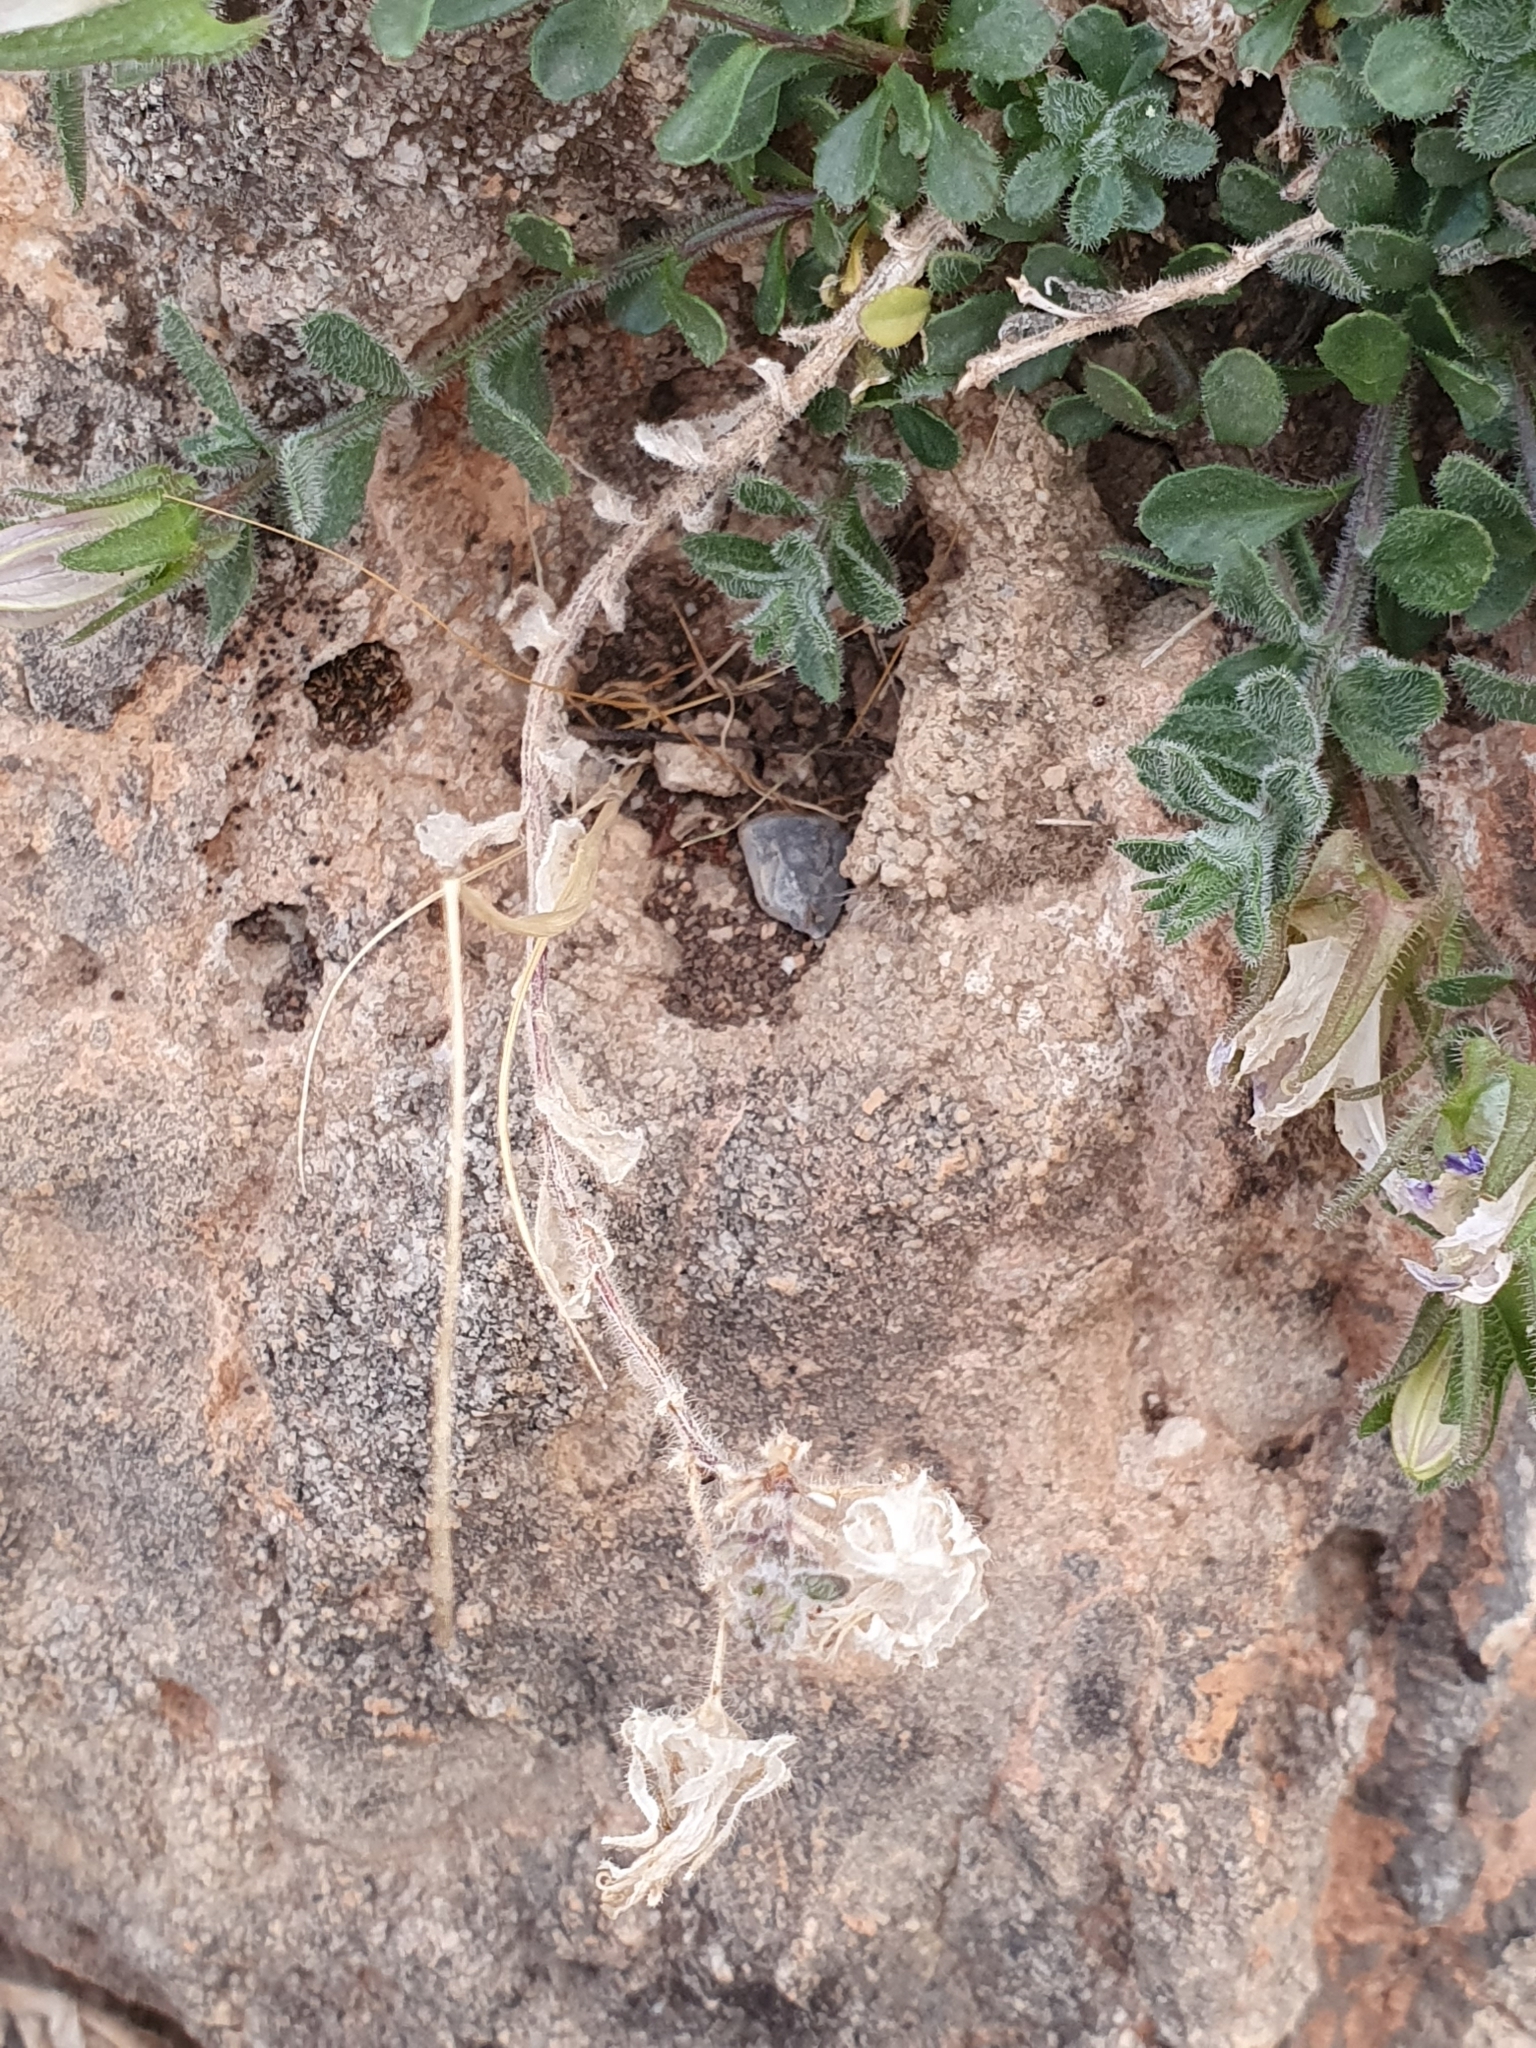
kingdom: Plantae
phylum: Tracheophyta
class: Magnoliopsida
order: Asterales
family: Campanulaceae
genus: Campanula
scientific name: Campanula numidica
